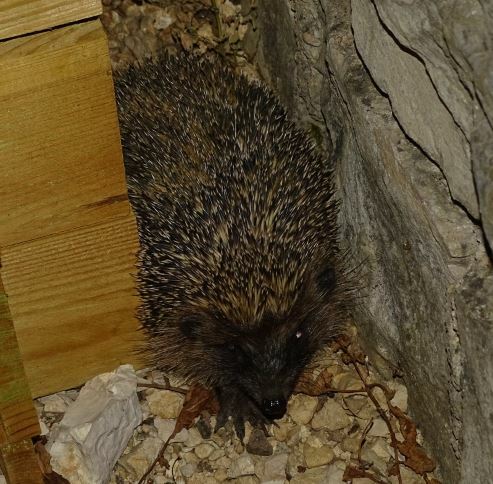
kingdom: Animalia
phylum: Chordata
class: Mammalia
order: Erinaceomorpha
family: Erinaceidae
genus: Erinaceus
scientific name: Erinaceus europaeus
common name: West european hedgehog
